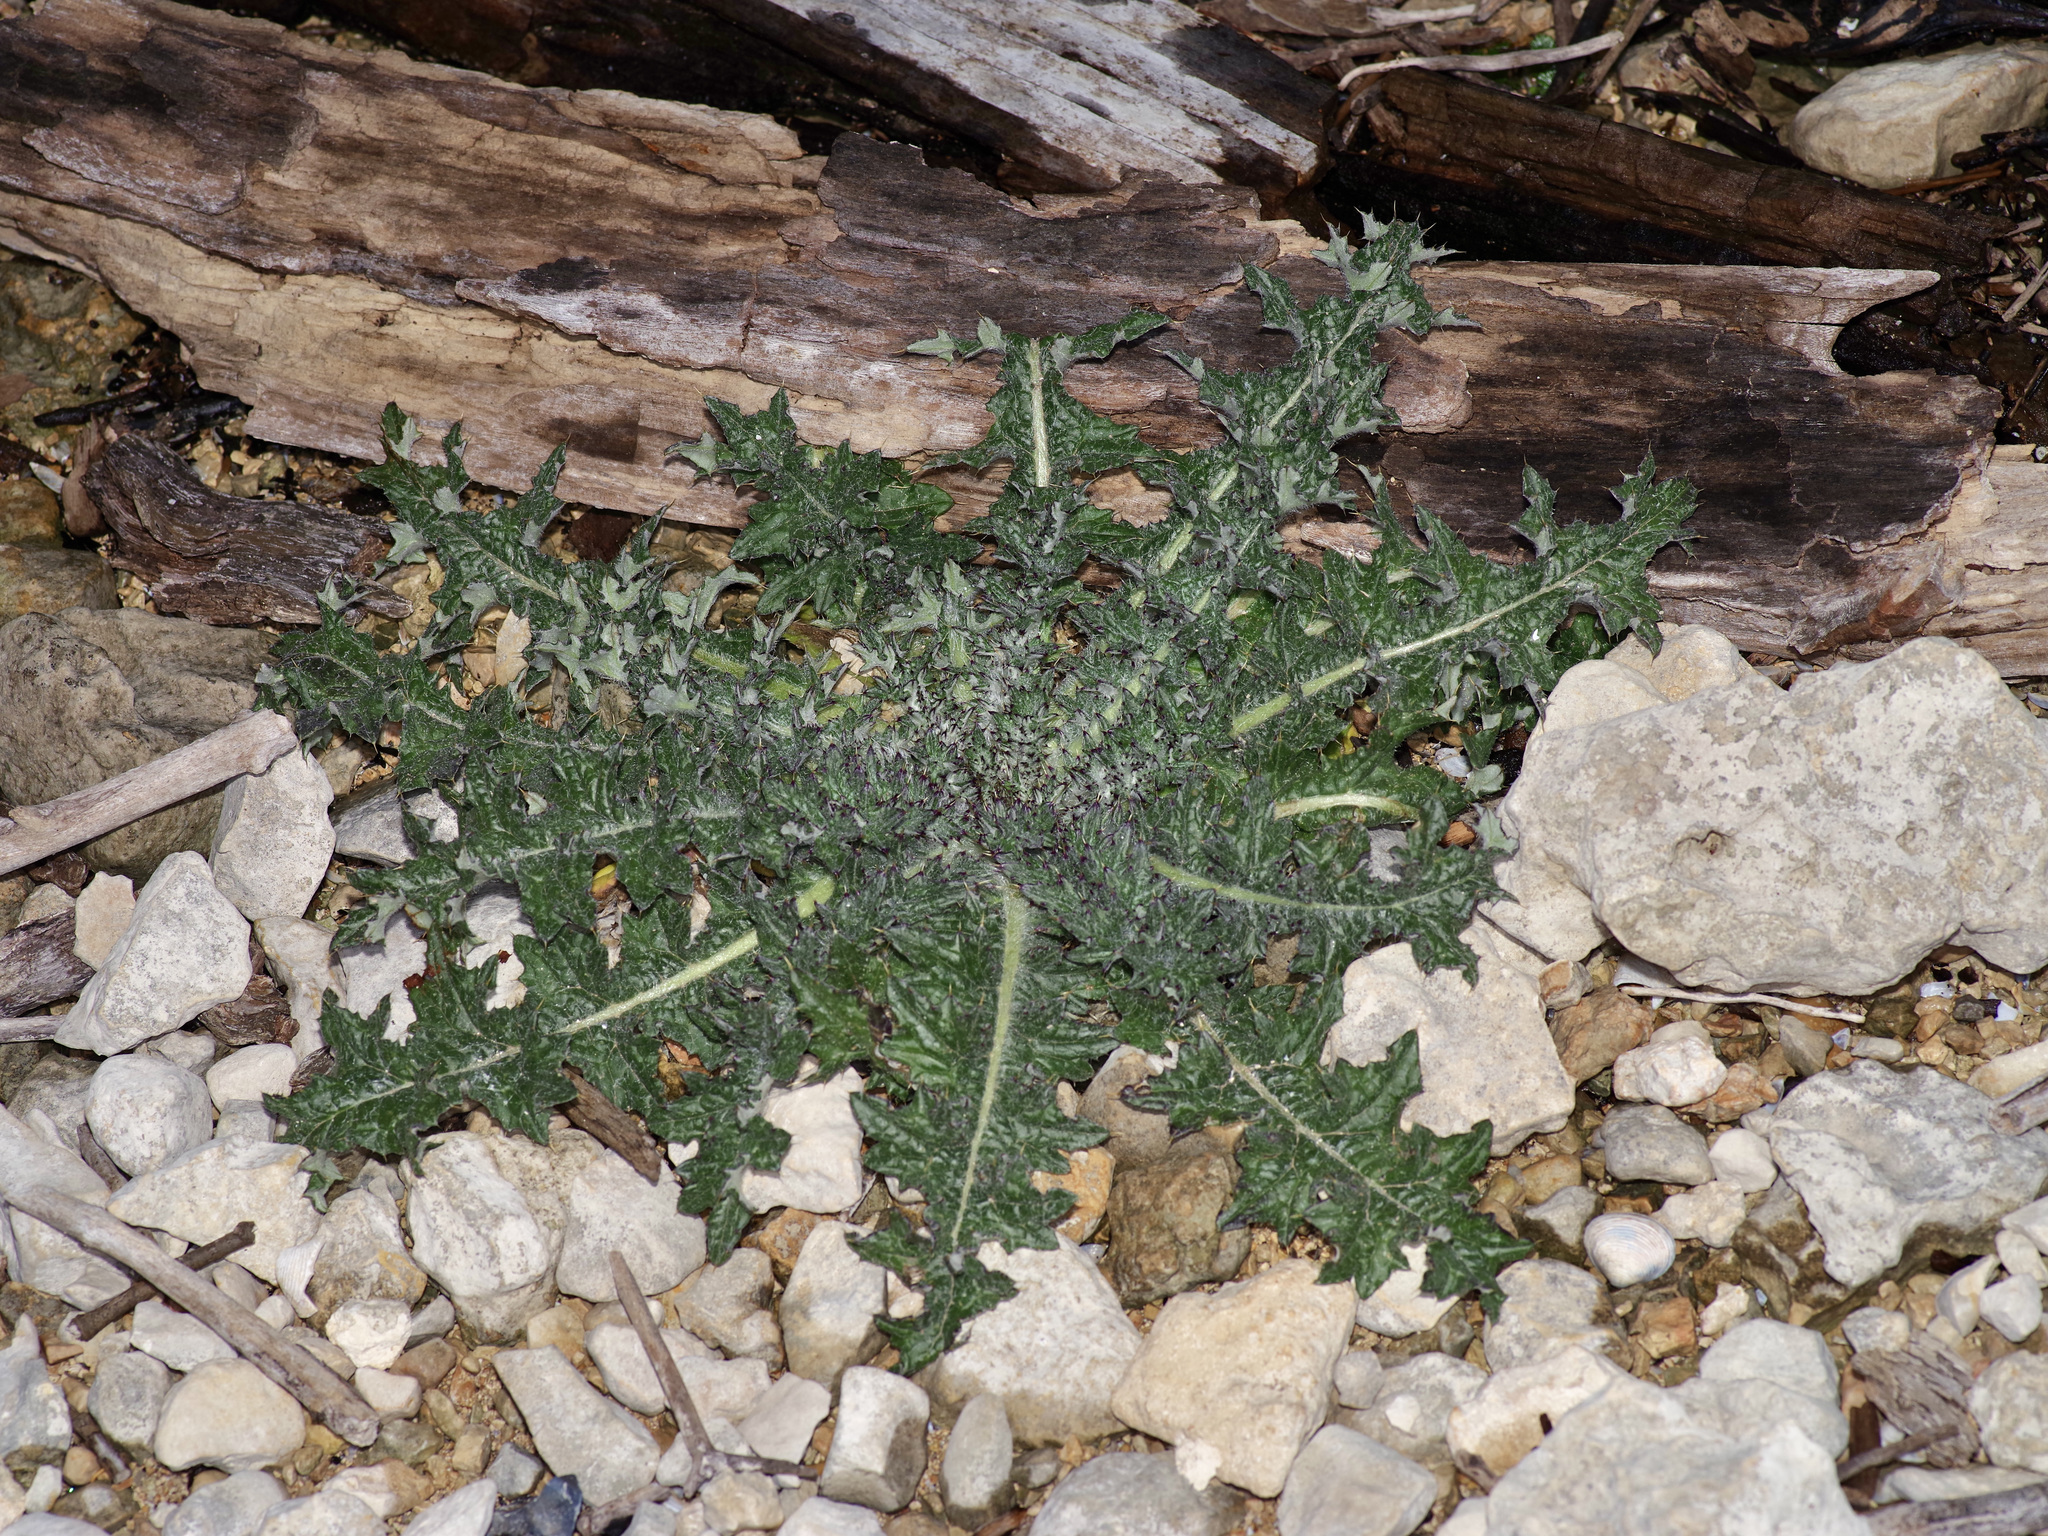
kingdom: Plantae
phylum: Tracheophyta
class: Magnoliopsida
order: Asterales
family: Asteraceae
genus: Cirsium
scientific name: Cirsium vulgare
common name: Bull thistle
